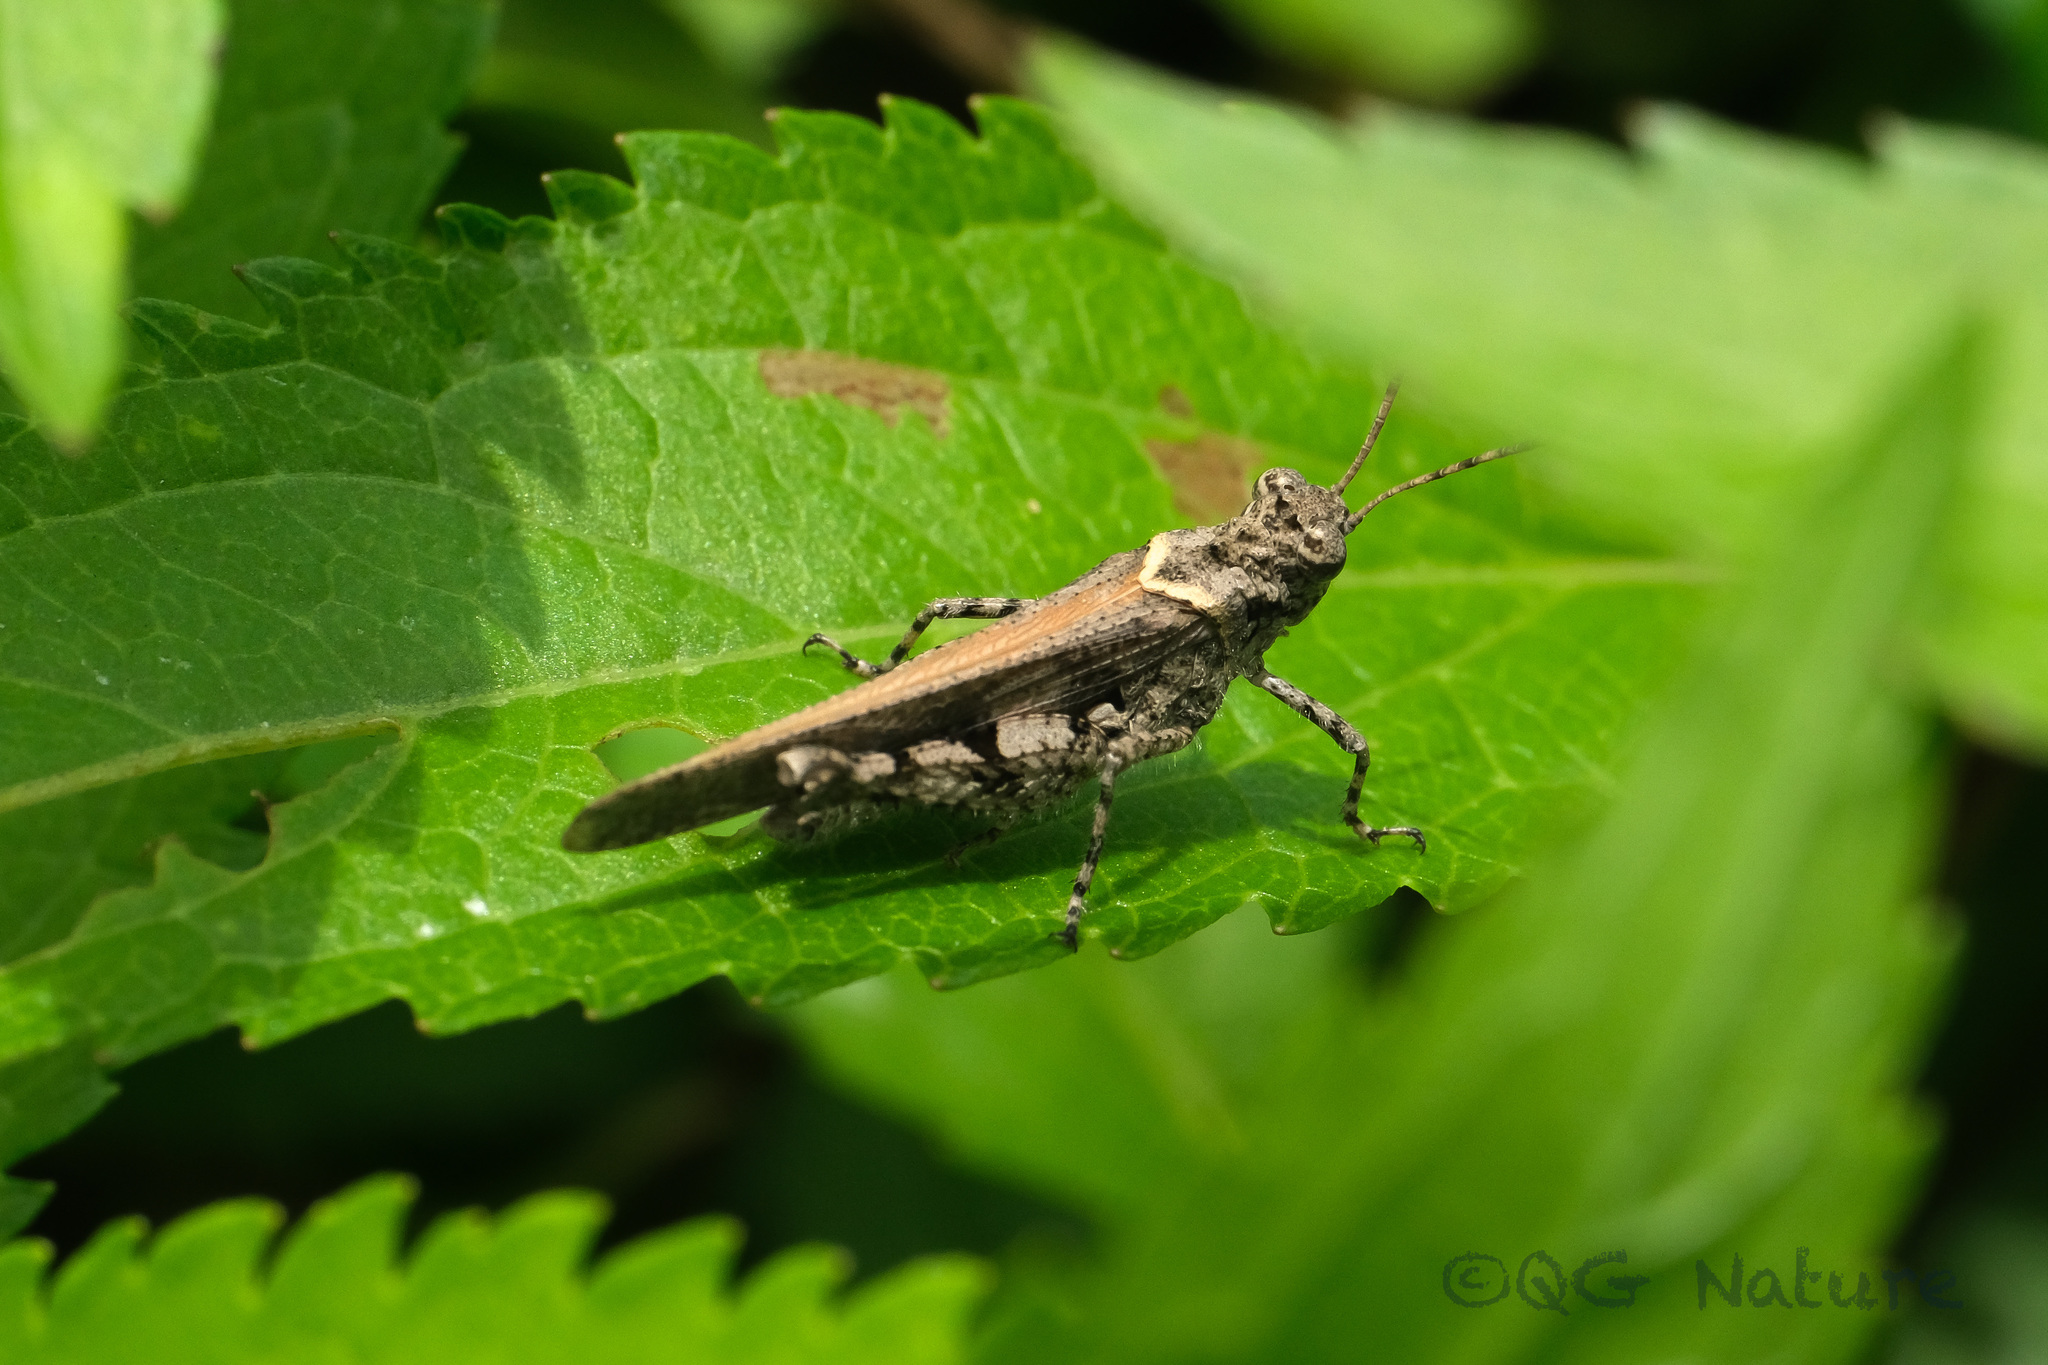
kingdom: Animalia
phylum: Arthropoda
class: Insecta
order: Orthoptera
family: Acrididae
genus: Trilophidia
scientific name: Trilophidia annulata
